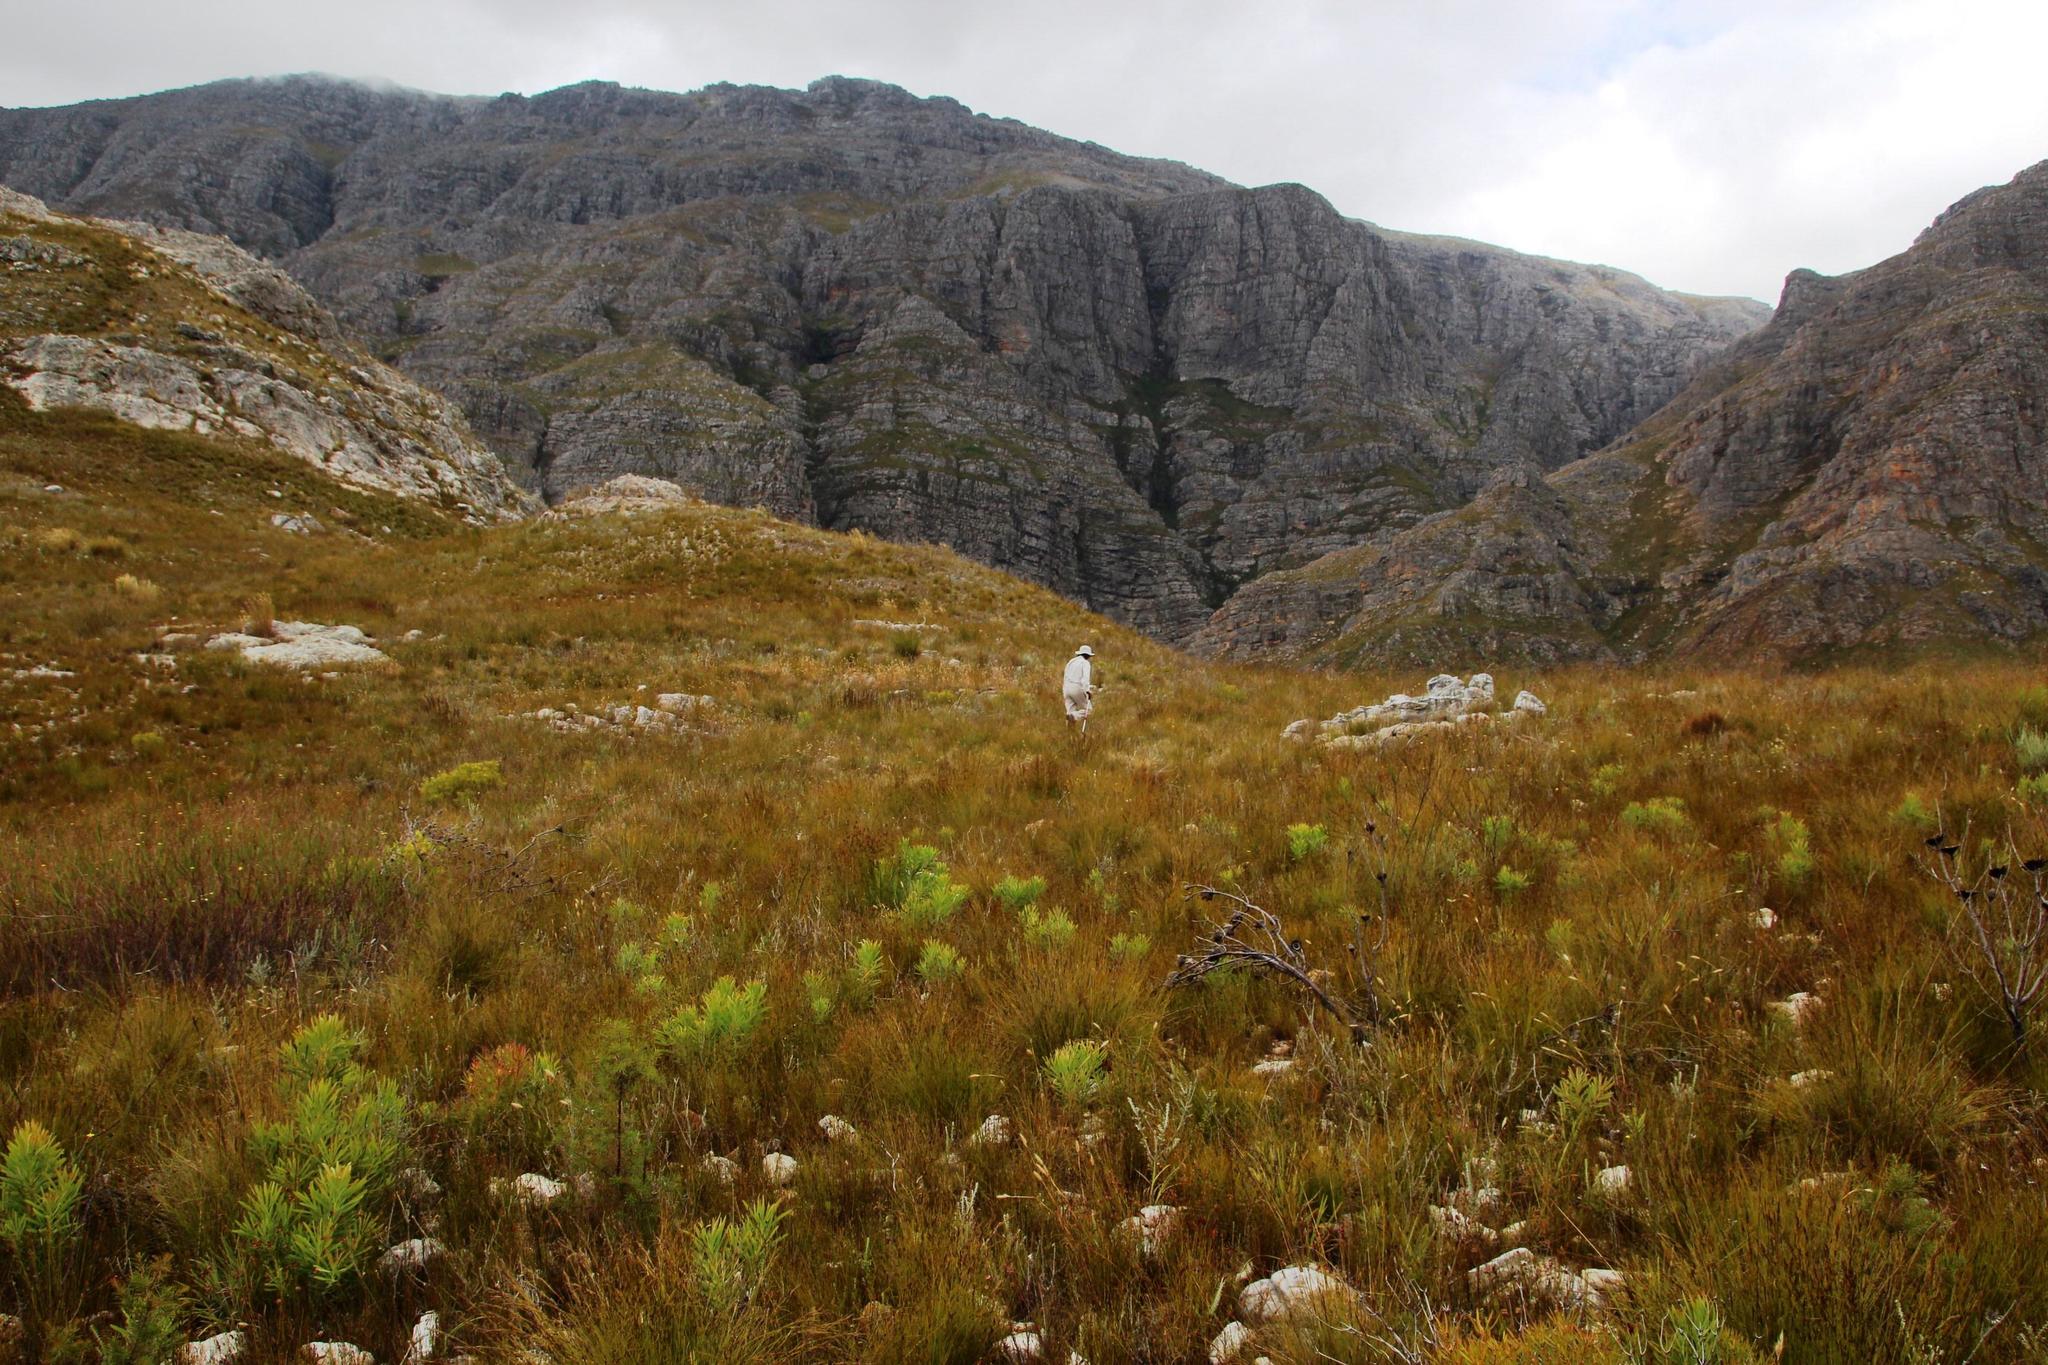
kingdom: Plantae
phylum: Tracheophyta
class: Magnoliopsida
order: Proteales
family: Proteaceae
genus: Protea
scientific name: Protea repens
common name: Sugarbush
